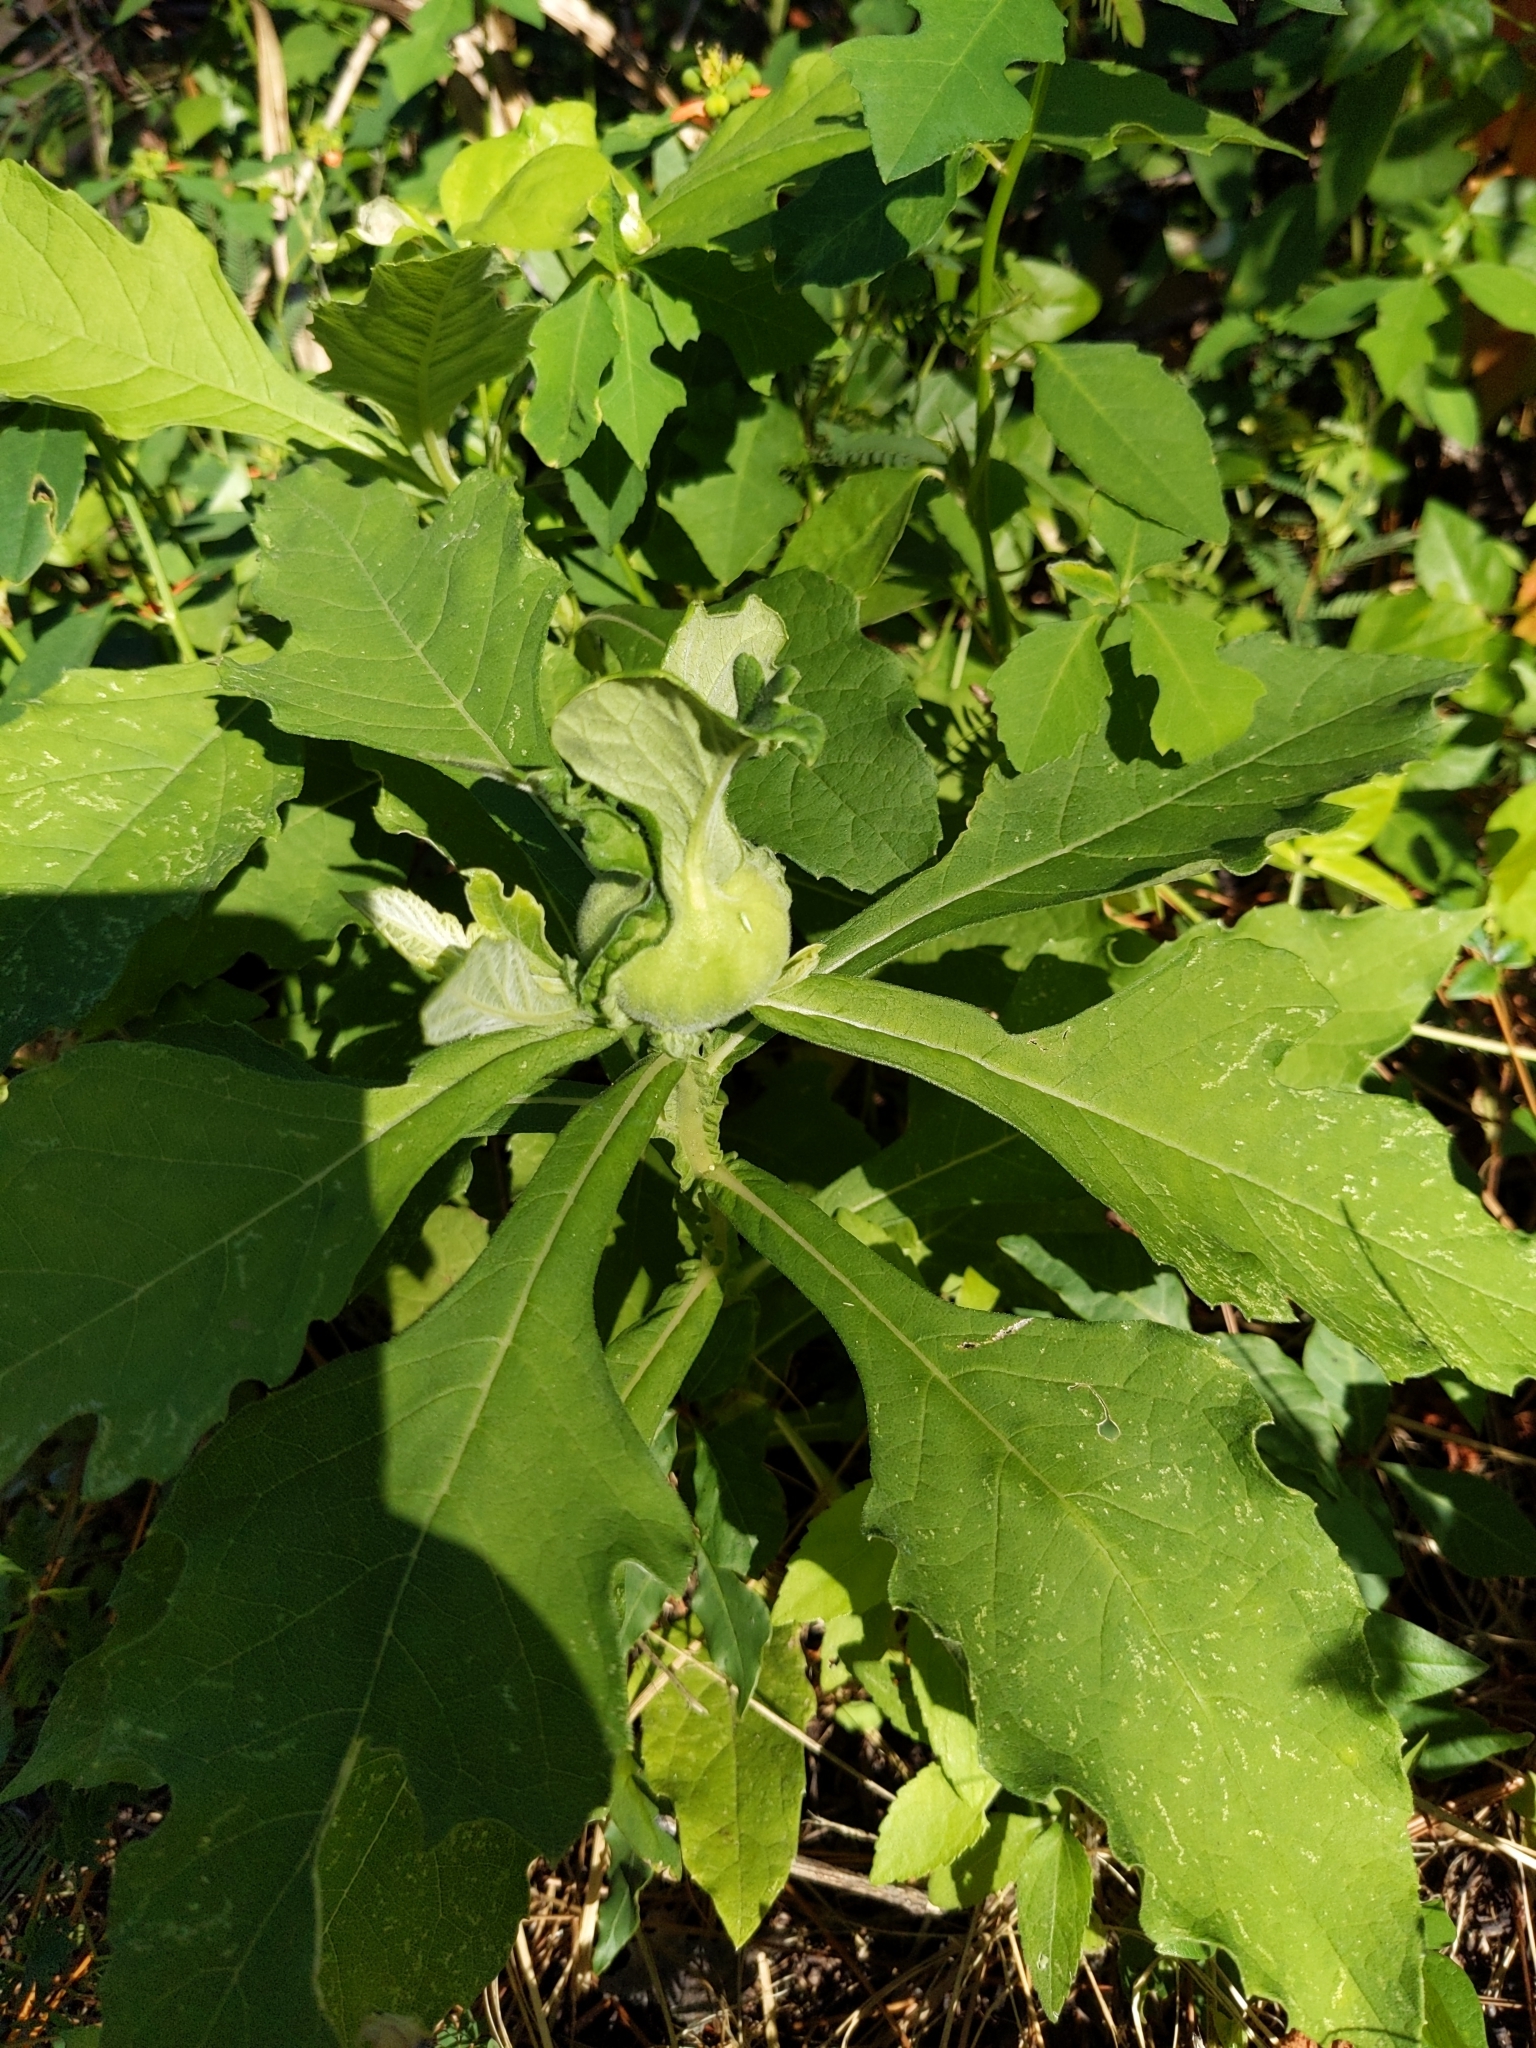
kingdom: Plantae
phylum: Tracheophyta
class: Magnoliopsida
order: Asterales
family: Asteraceae
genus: Verbesina
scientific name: Verbesina virginica
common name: Frostweed
